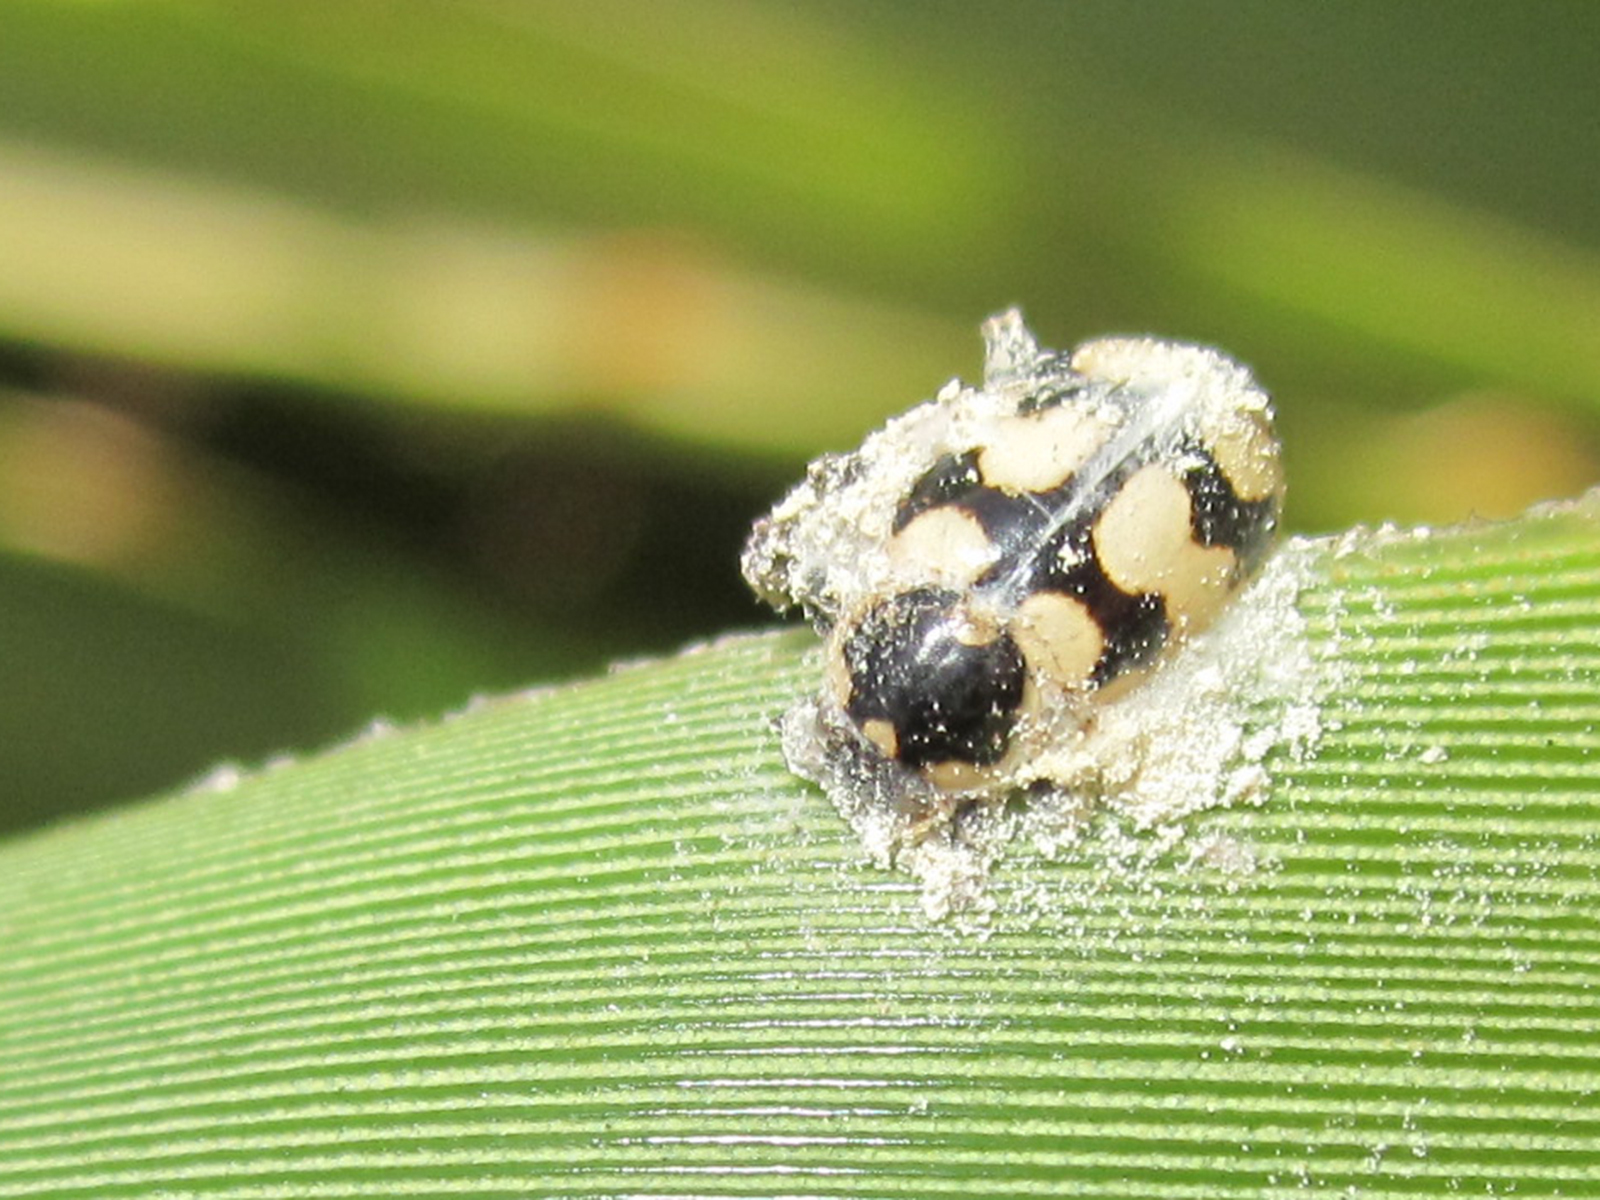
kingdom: Animalia
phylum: Arthropoda
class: Insecta
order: Coleoptera
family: Coccinellidae
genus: Eriopis
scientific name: Eriopis chilensis
